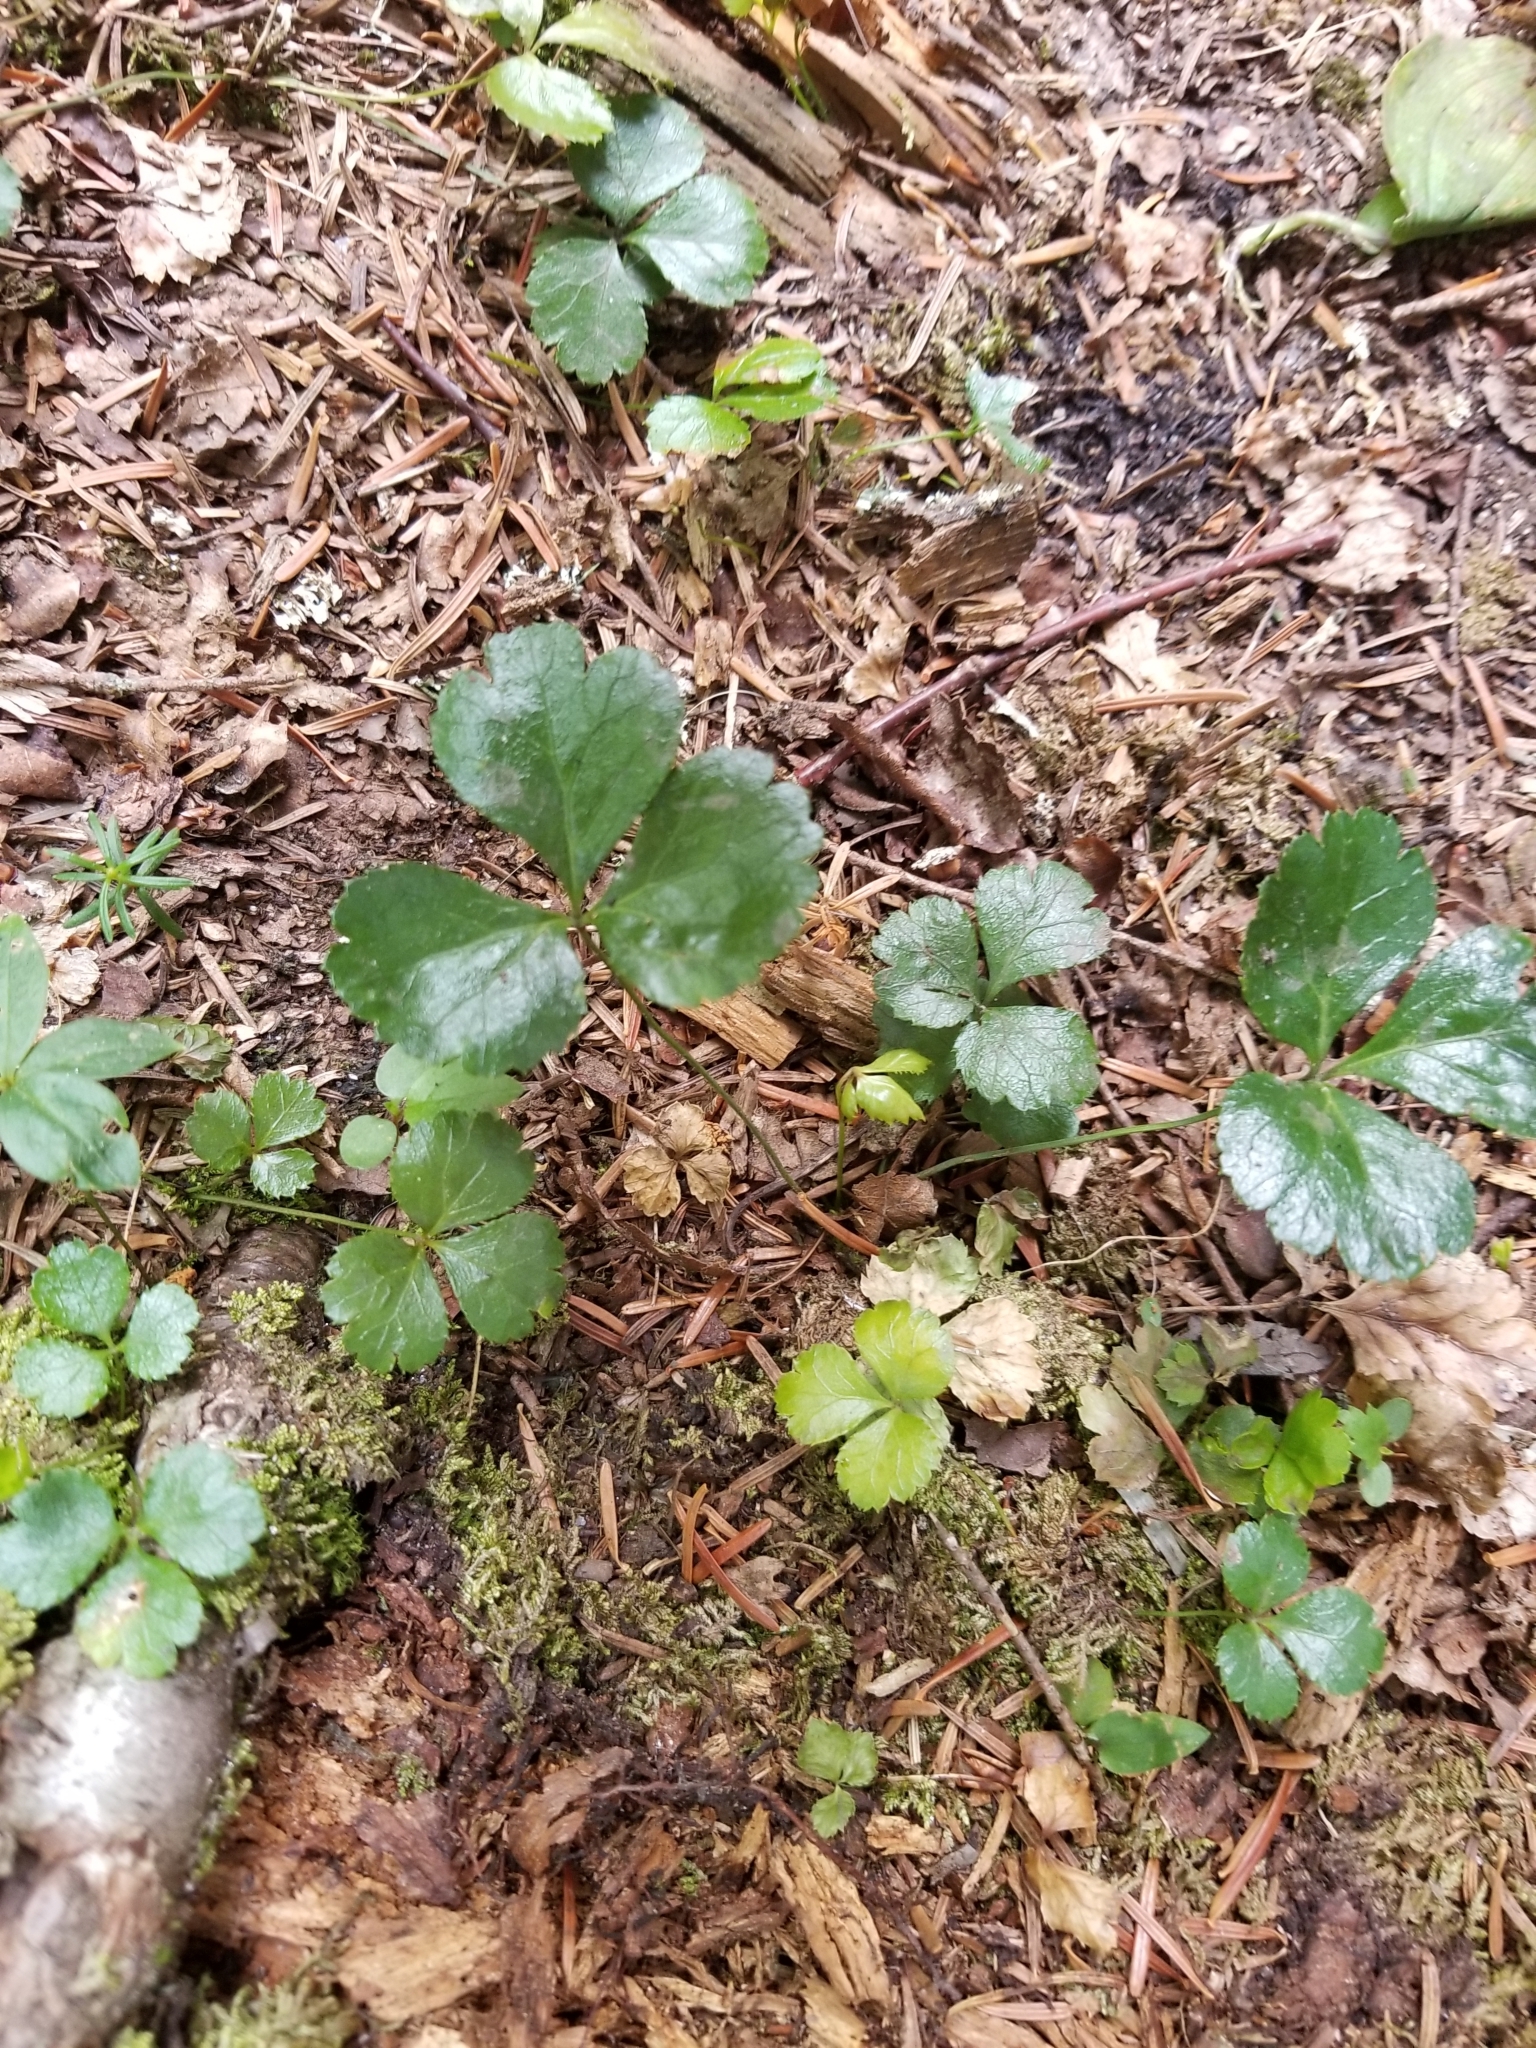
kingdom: Plantae
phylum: Tracheophyta
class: Magnoliopsida
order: Ranunculales
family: Ranunculaceae
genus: Coptis
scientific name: Coptis trifolia
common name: Canker-root
